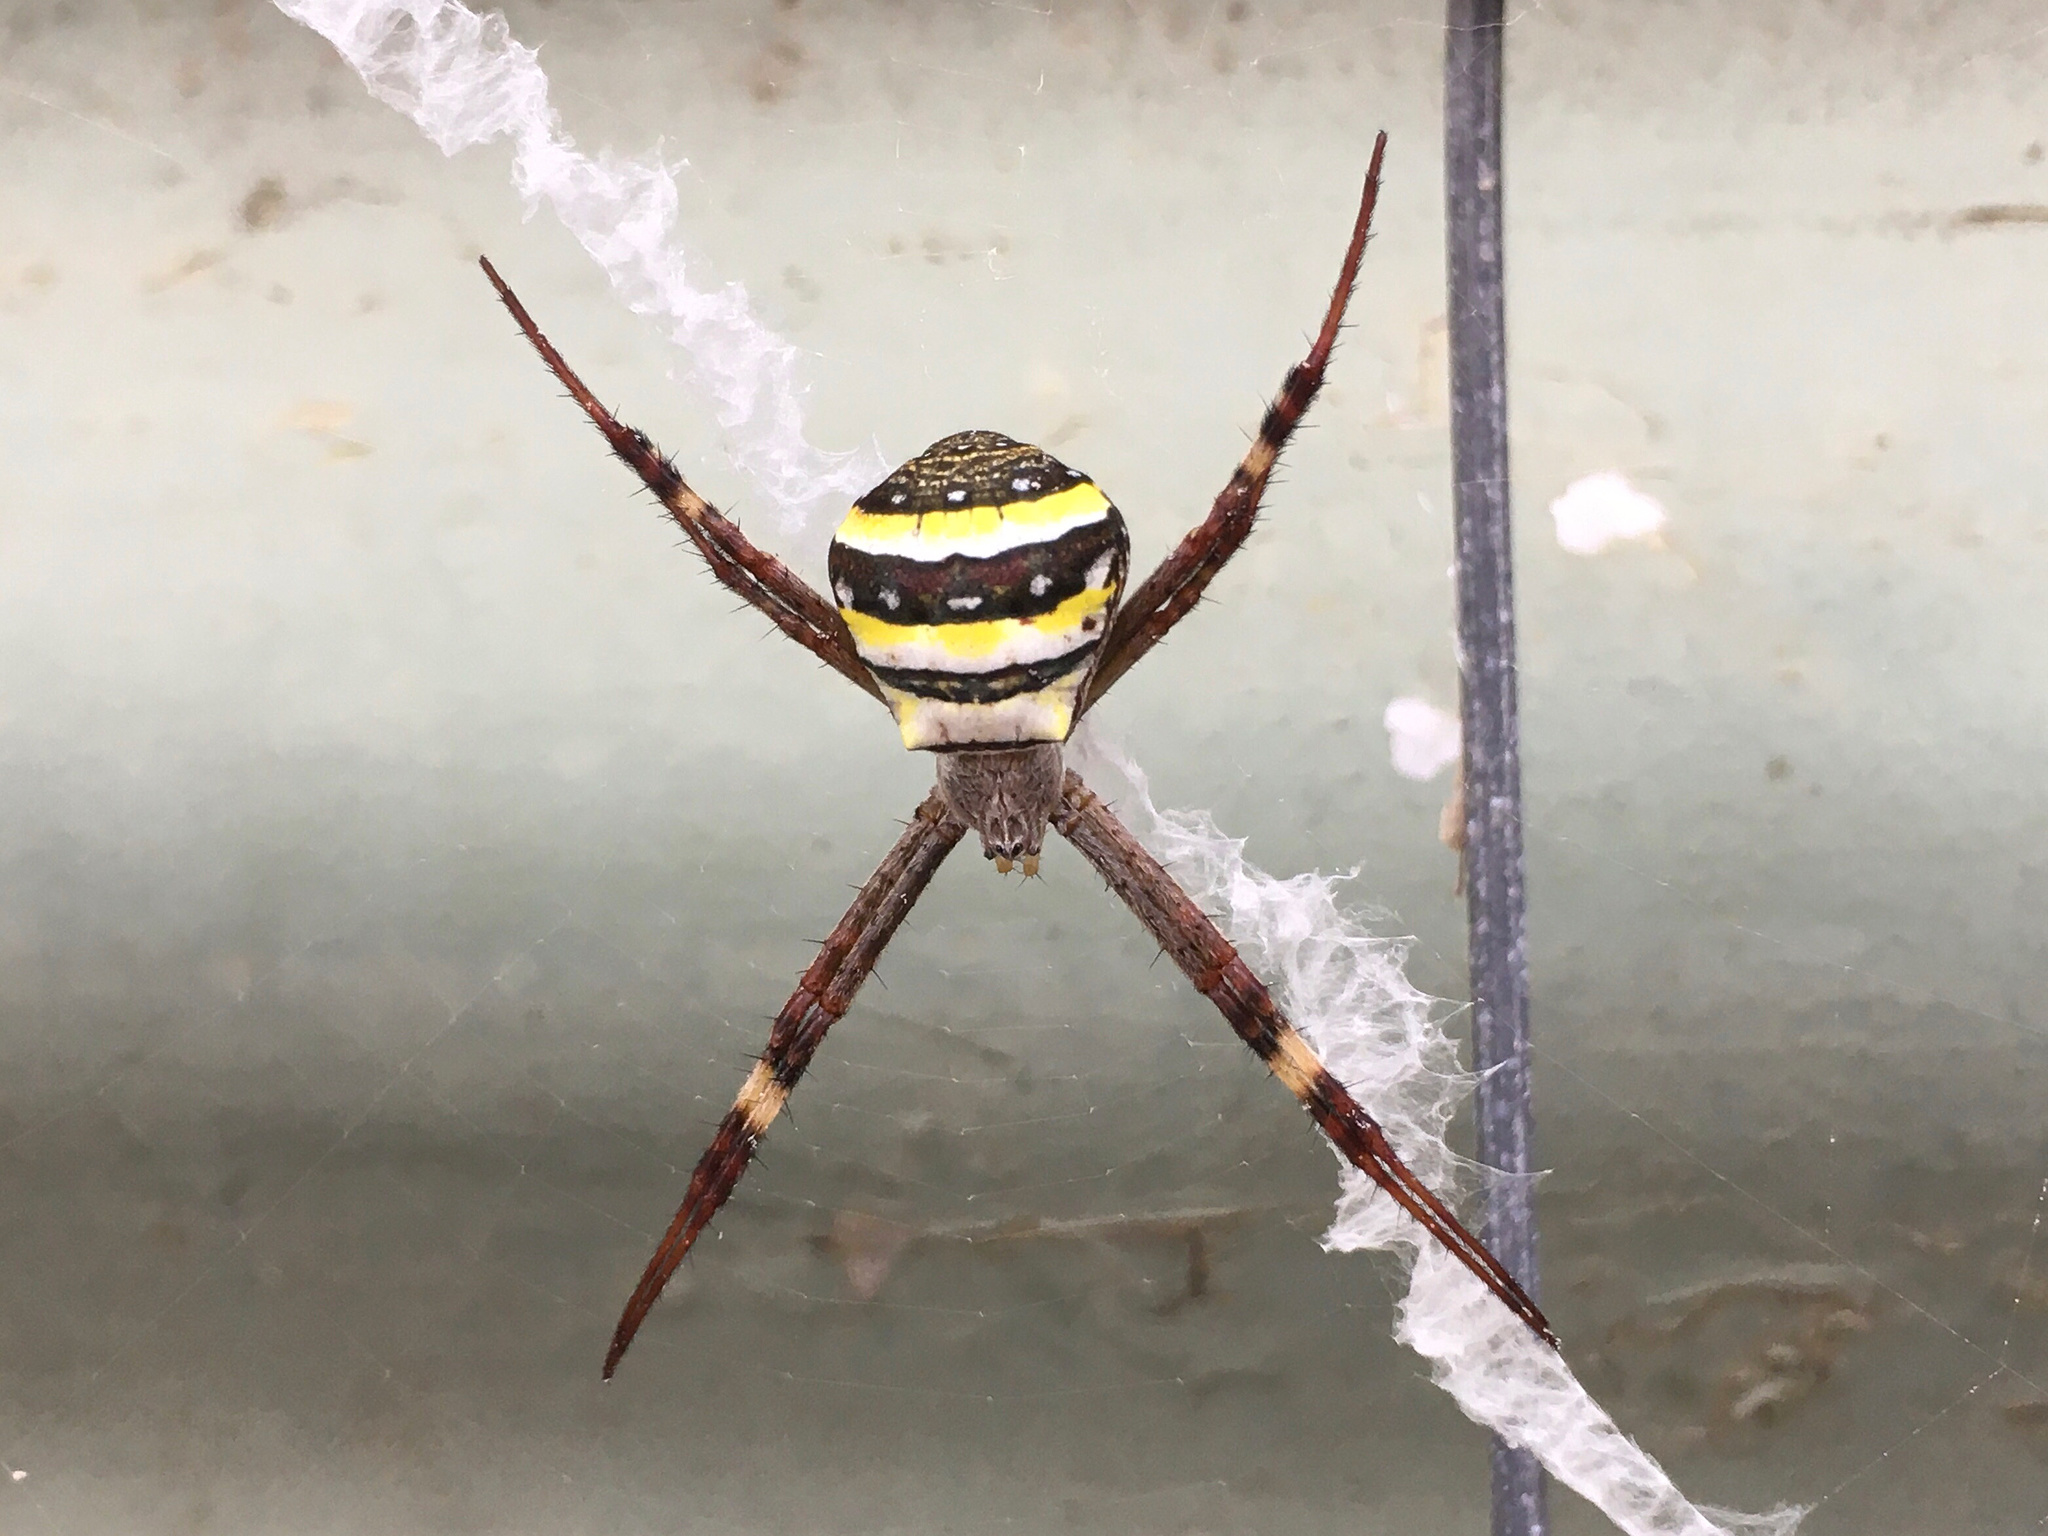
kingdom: Animalia
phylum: Arthropoda
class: Arachnida
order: Araneae
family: Araneidae
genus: Argiope
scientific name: Argiope keyserlingi
